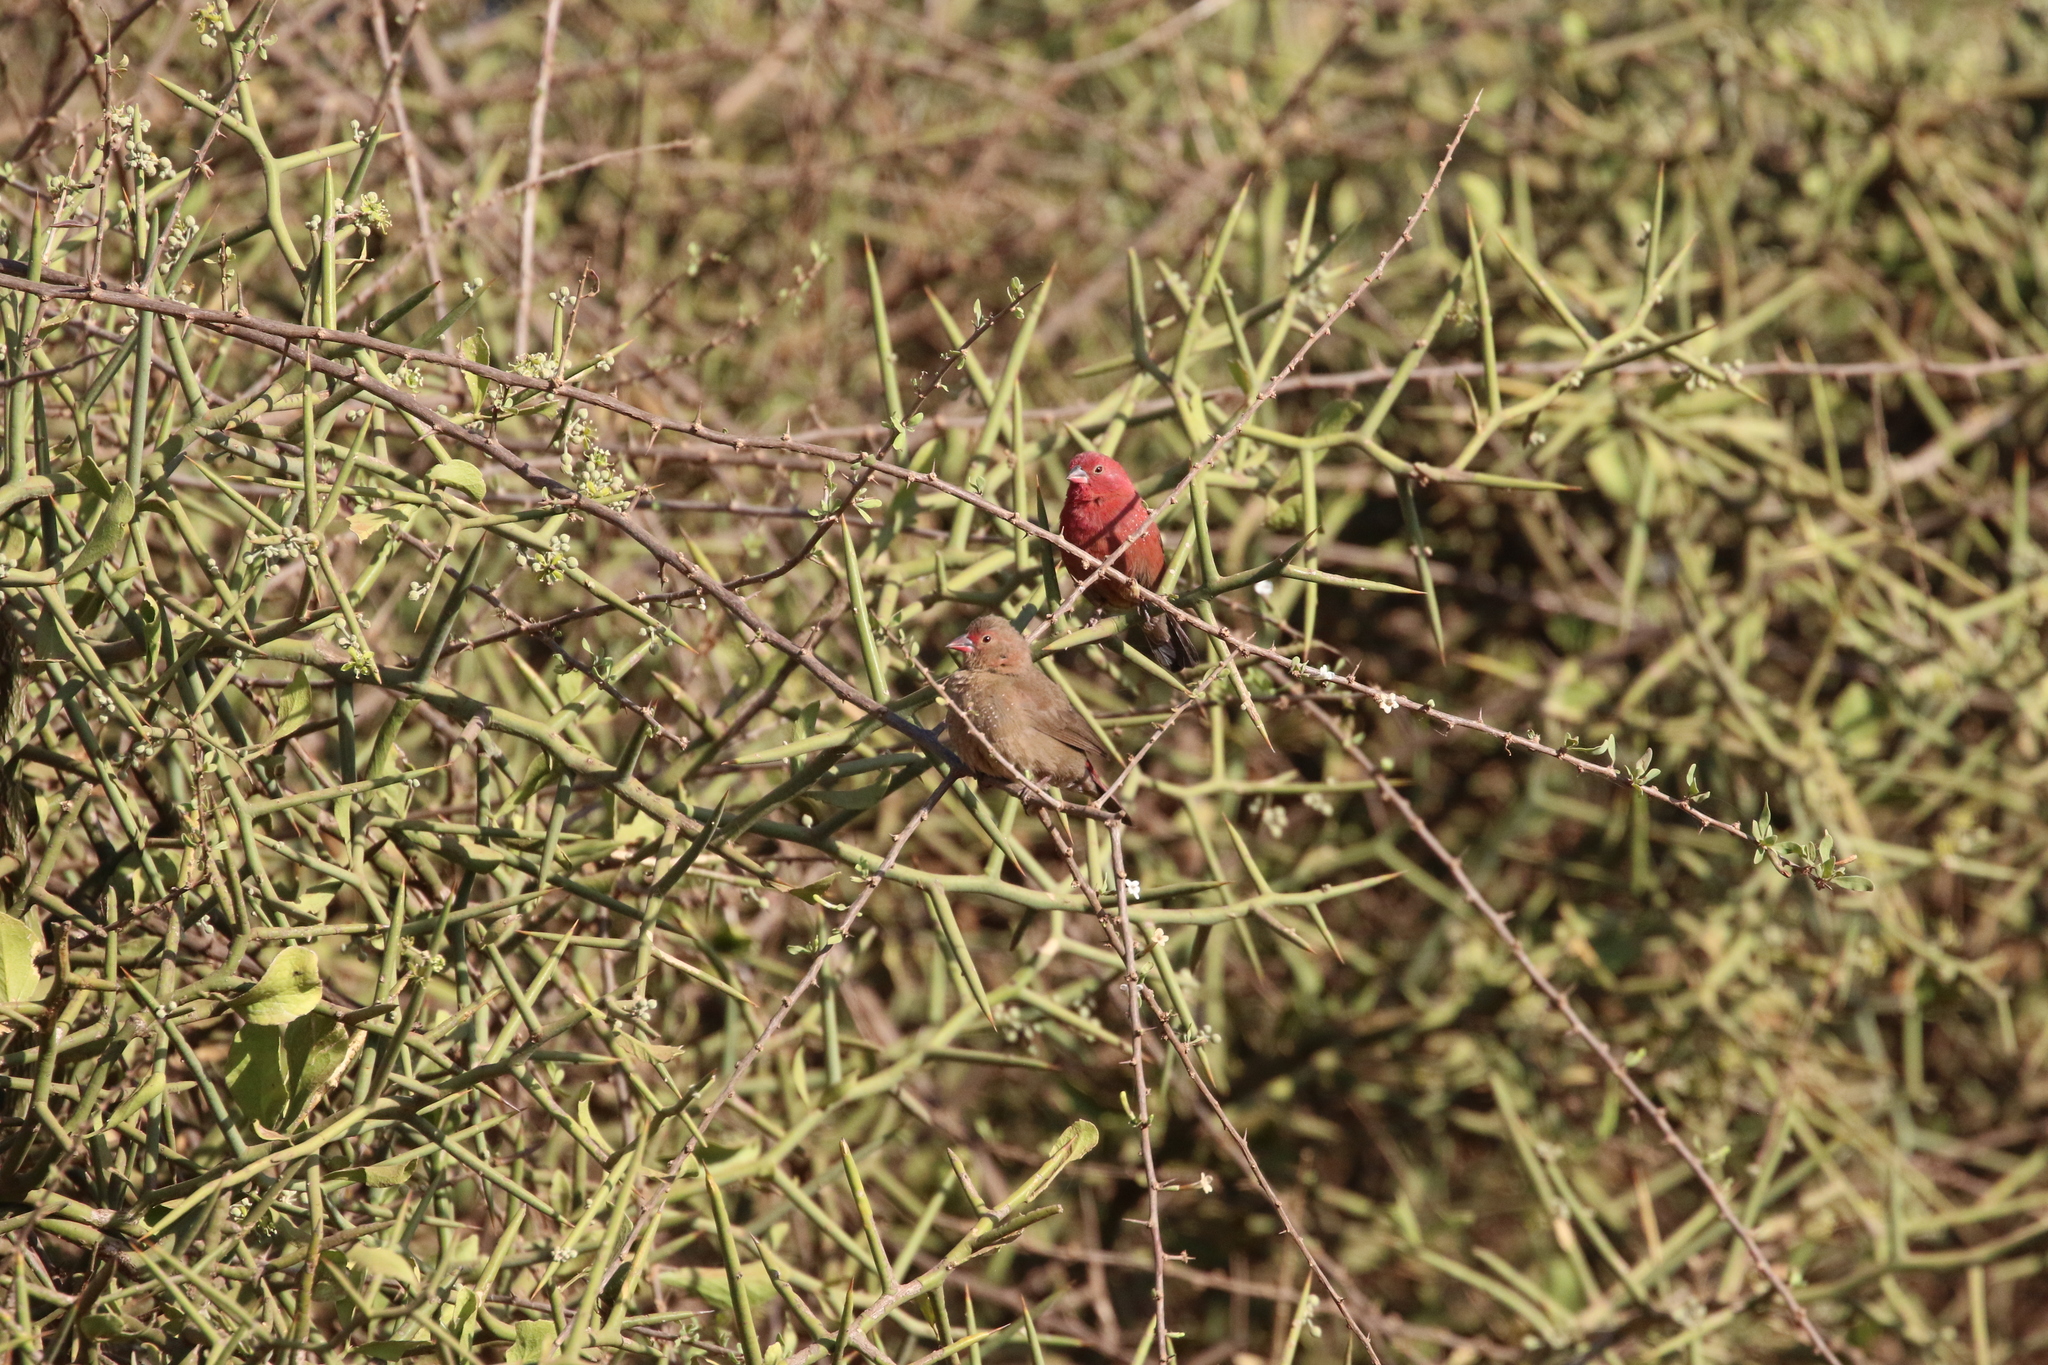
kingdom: Animalia
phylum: Chordata
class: Aves
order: Passeriformes
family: Estrildidae
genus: Lagonosticta
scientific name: Lagonosticta senegala
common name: Red-billed firefinch
